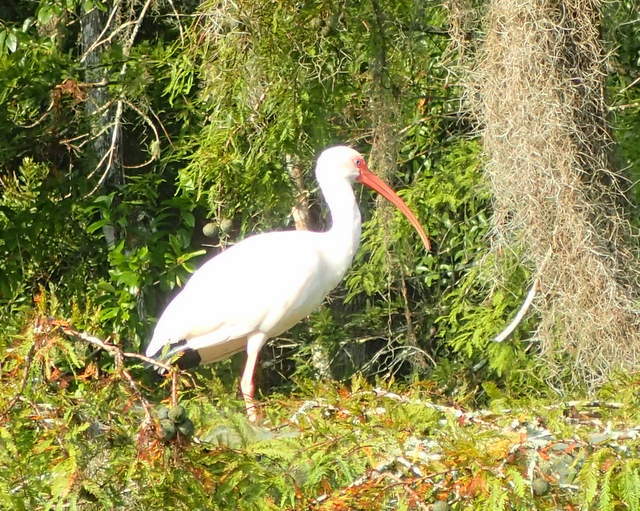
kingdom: Animalia
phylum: Chordata
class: Aves
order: Pelecaniformes
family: Threskiornithidae
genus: Eudocimus
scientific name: Eudocimus albus
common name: White ibis
